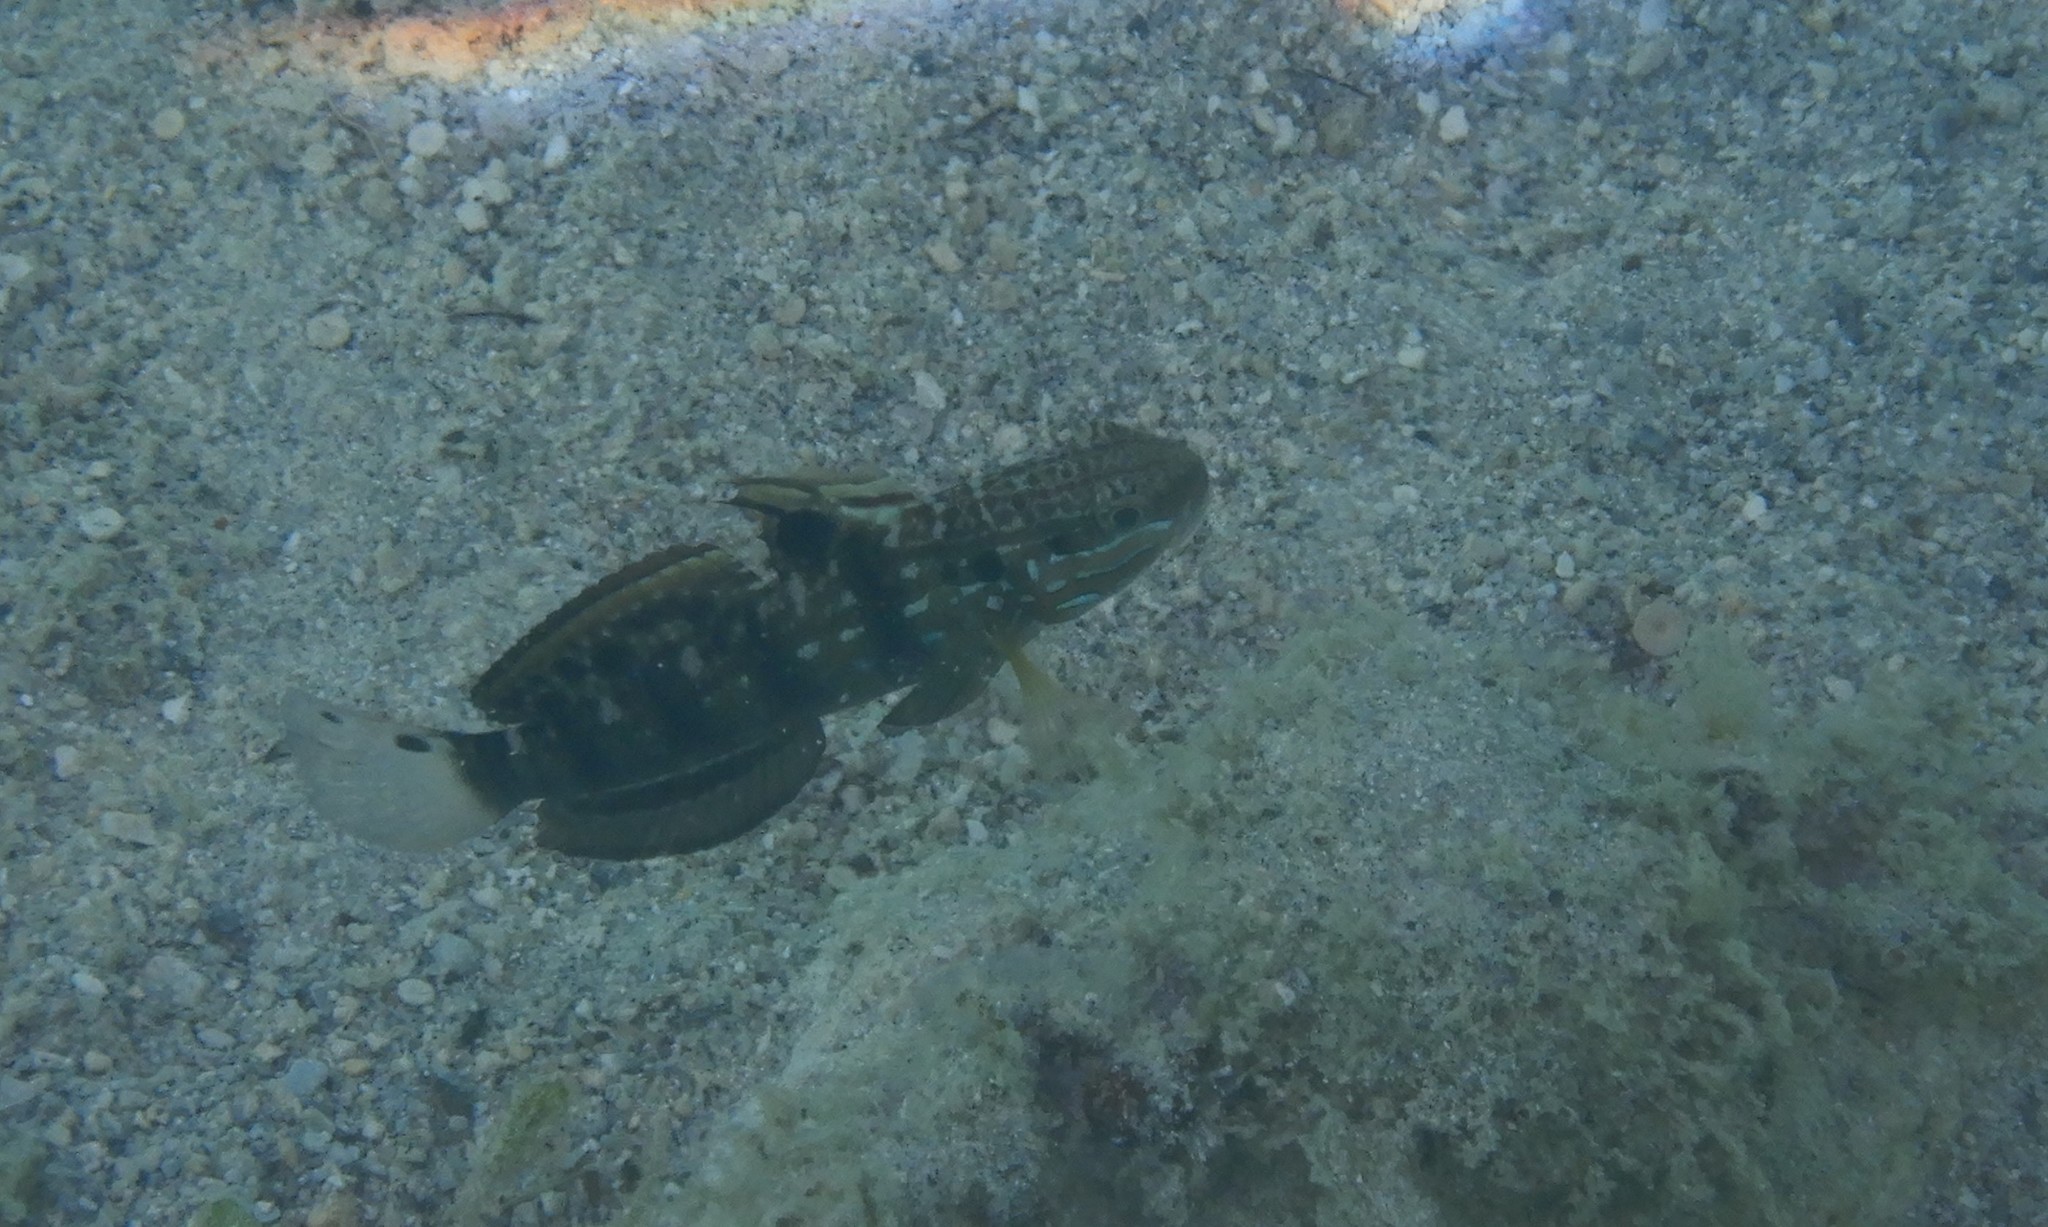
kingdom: Animalia
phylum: Chordata
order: Perciformes
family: Gobiidae
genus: Amblygobius
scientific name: Amblygobius phalaena
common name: Banded goby
